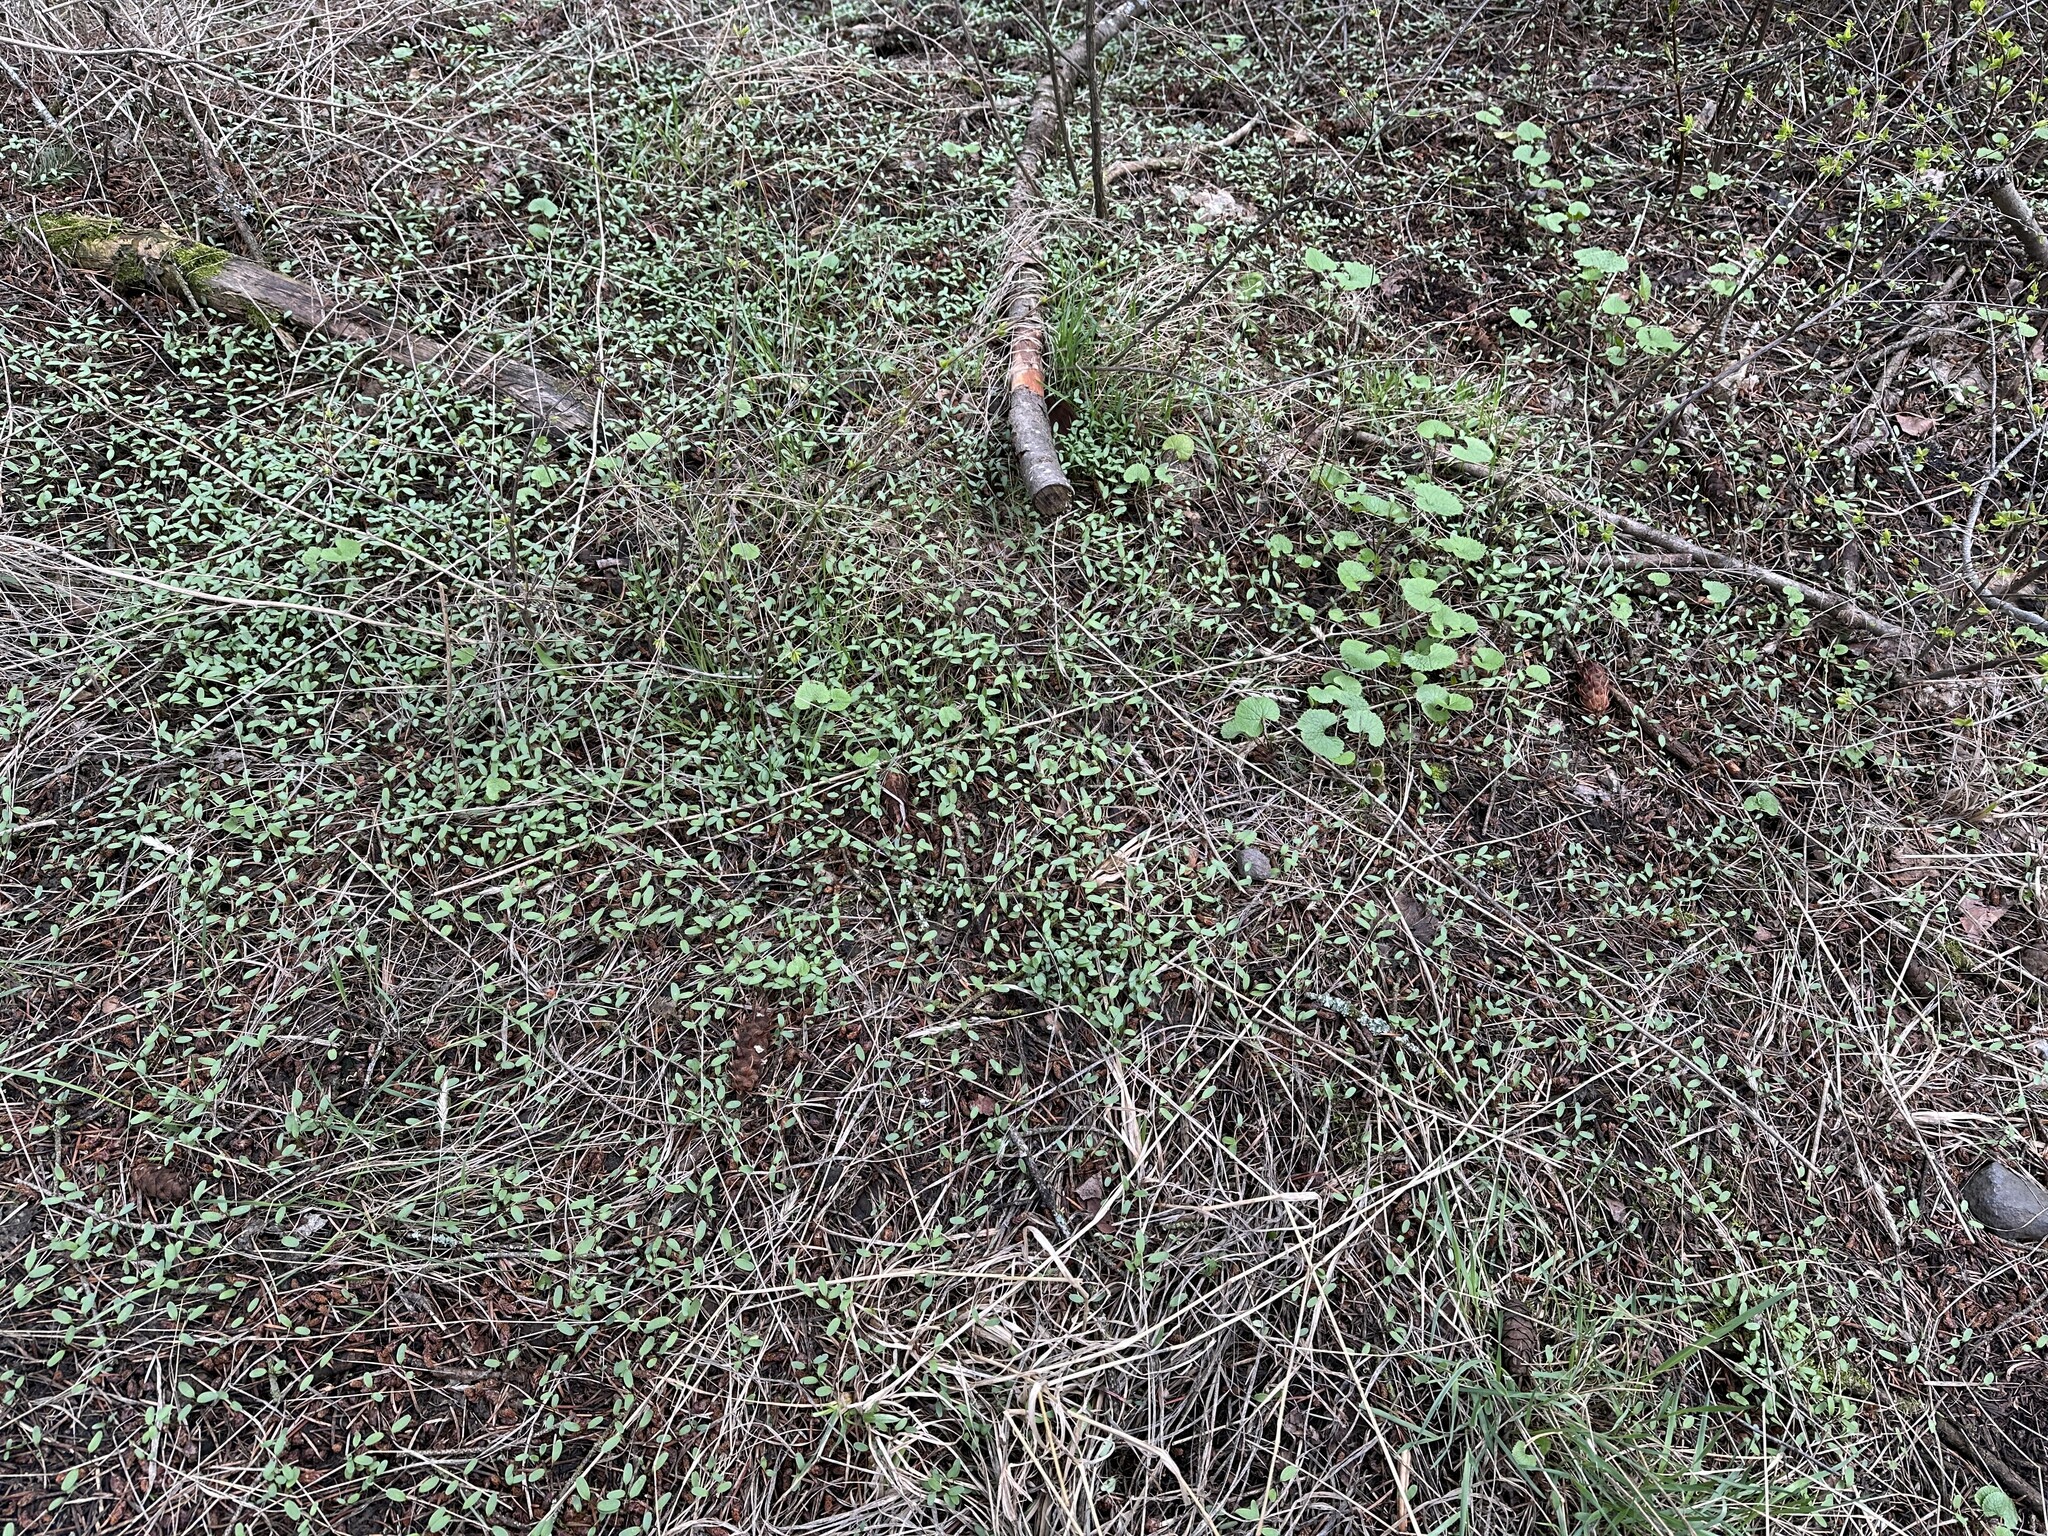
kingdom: Plantae
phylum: Tracheophyta
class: Magnoliopsida
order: Brassicales
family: Brassicaceae
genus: Alliaria
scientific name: Alliaria petiolata
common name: Garlic mustard
